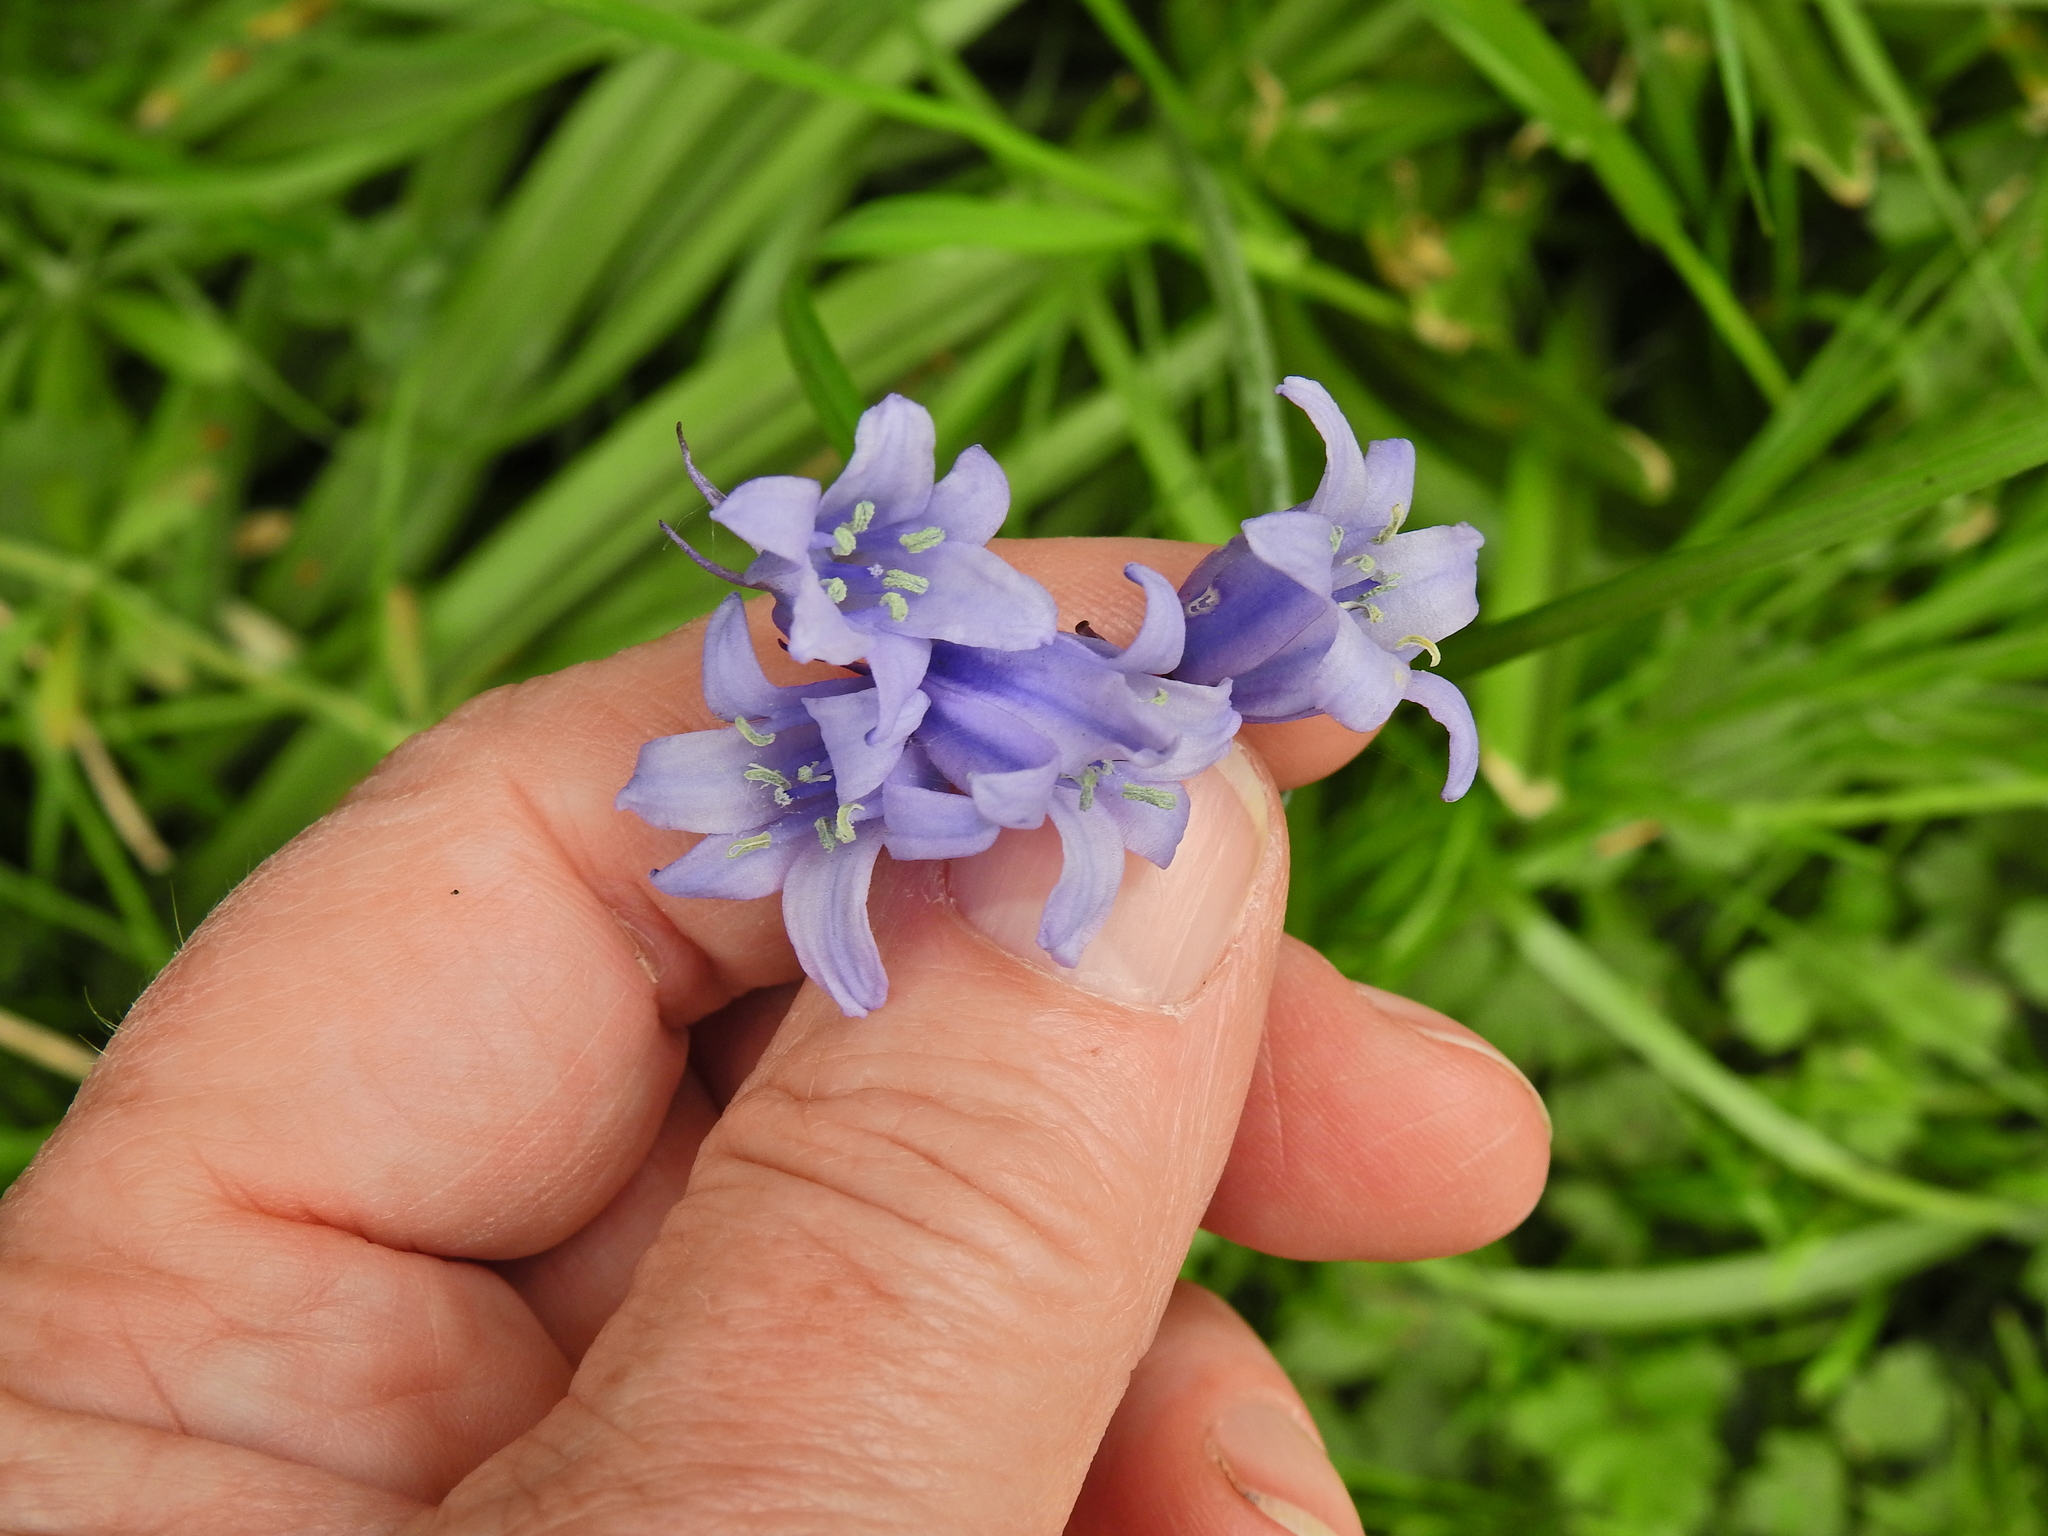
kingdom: Plantae
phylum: Tracheophyta
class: Liliopsida
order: Asparagales
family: Asparagaceae
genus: Hyacinthoides
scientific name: Hyacinthoides massartiana
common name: Hyacinthoides
